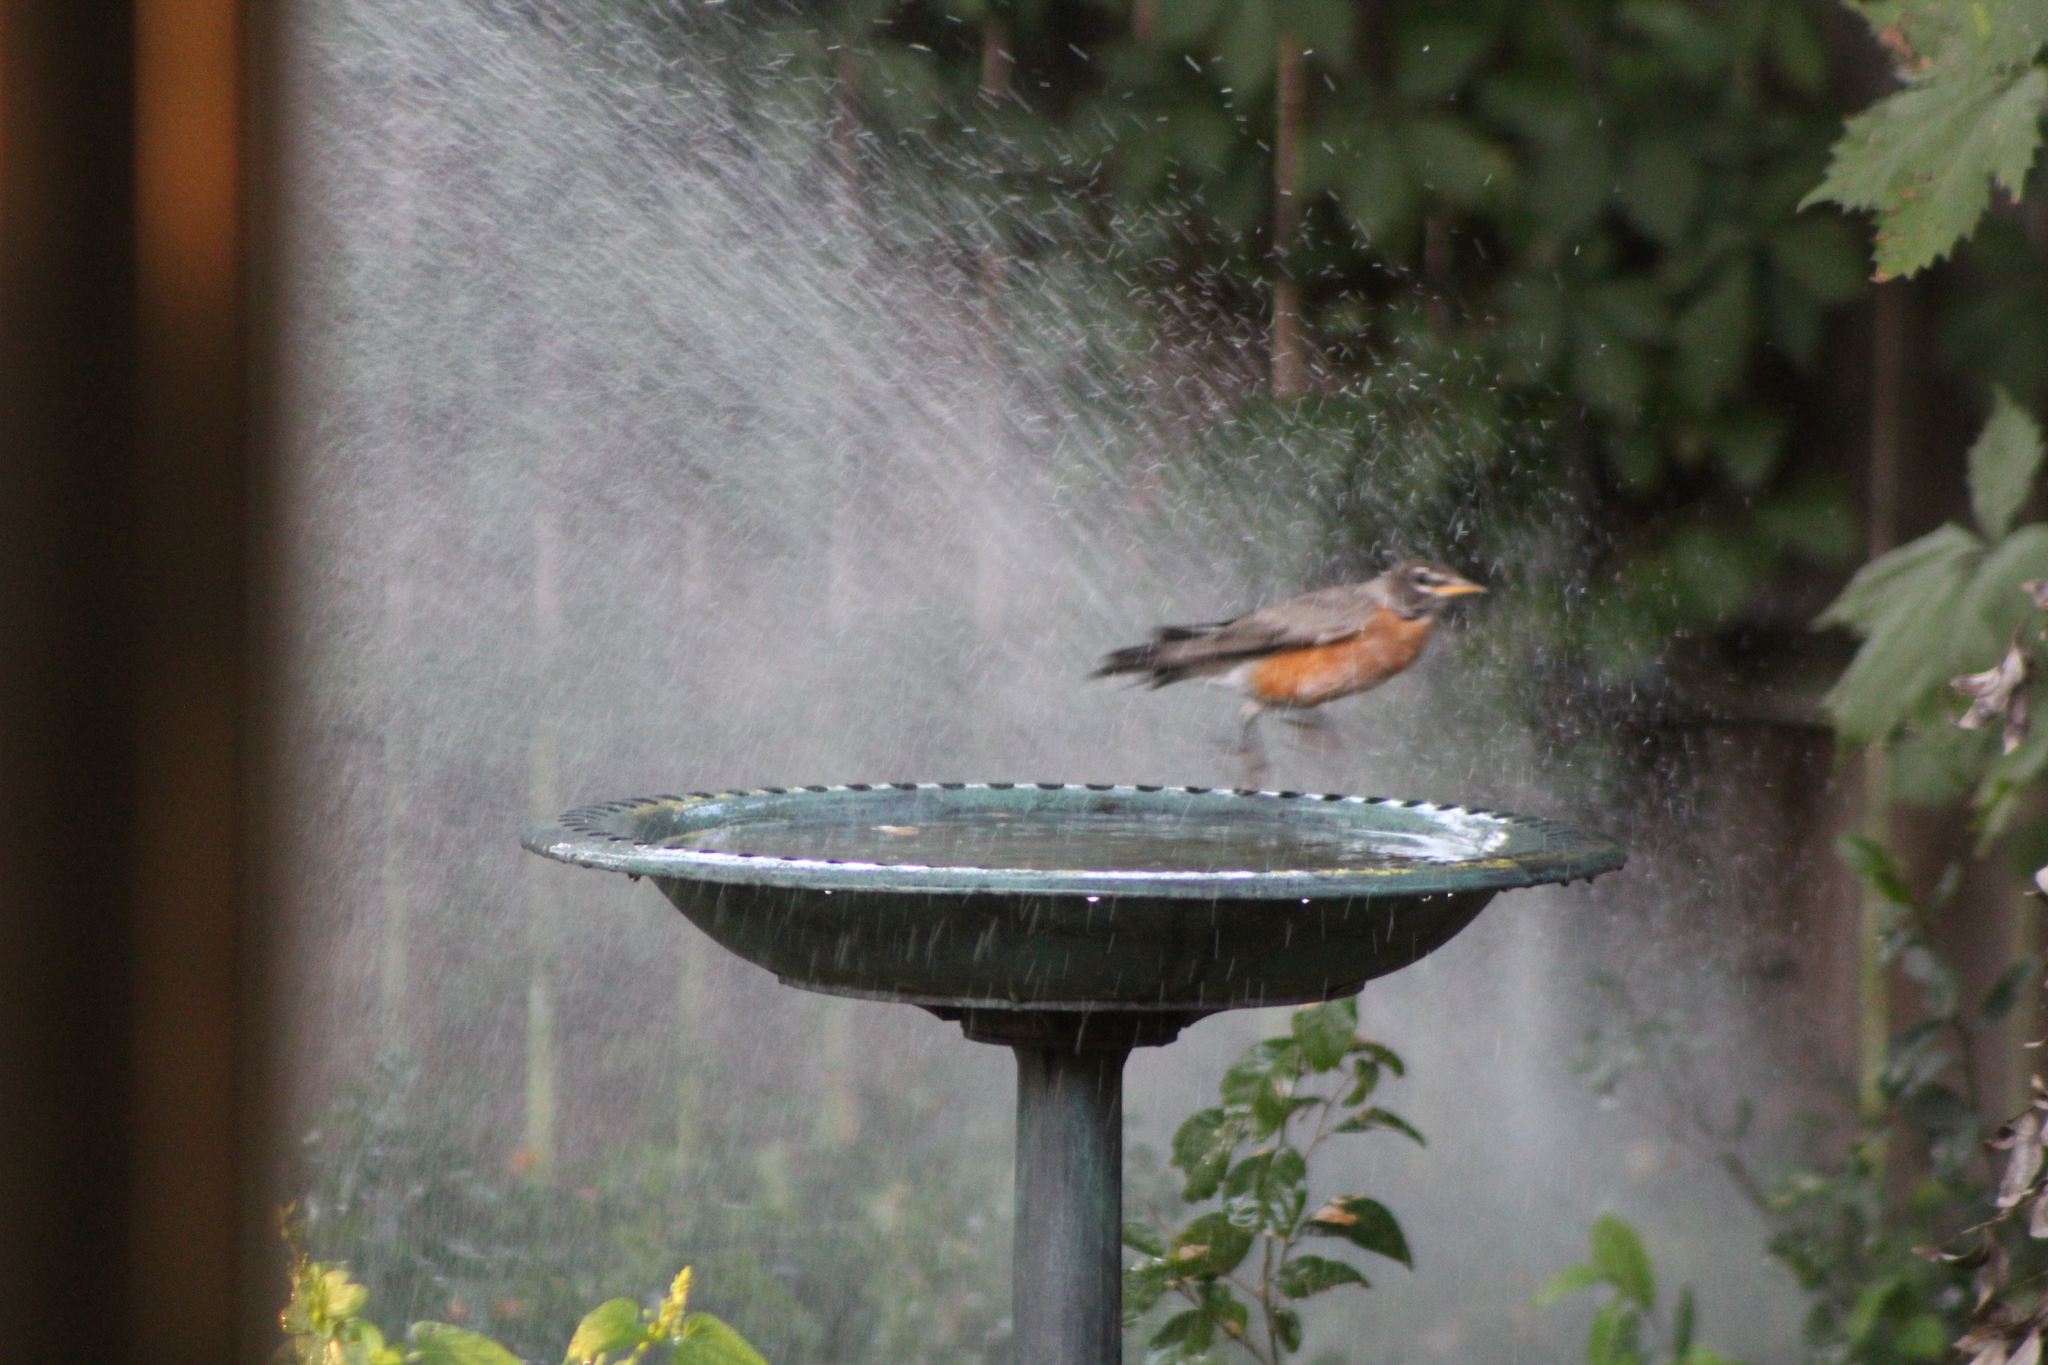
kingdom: Animalia
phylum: Chordata
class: Aves
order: Passeriformes
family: Turdidae
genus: Turdus
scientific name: Turdus migratorius
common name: American robin
